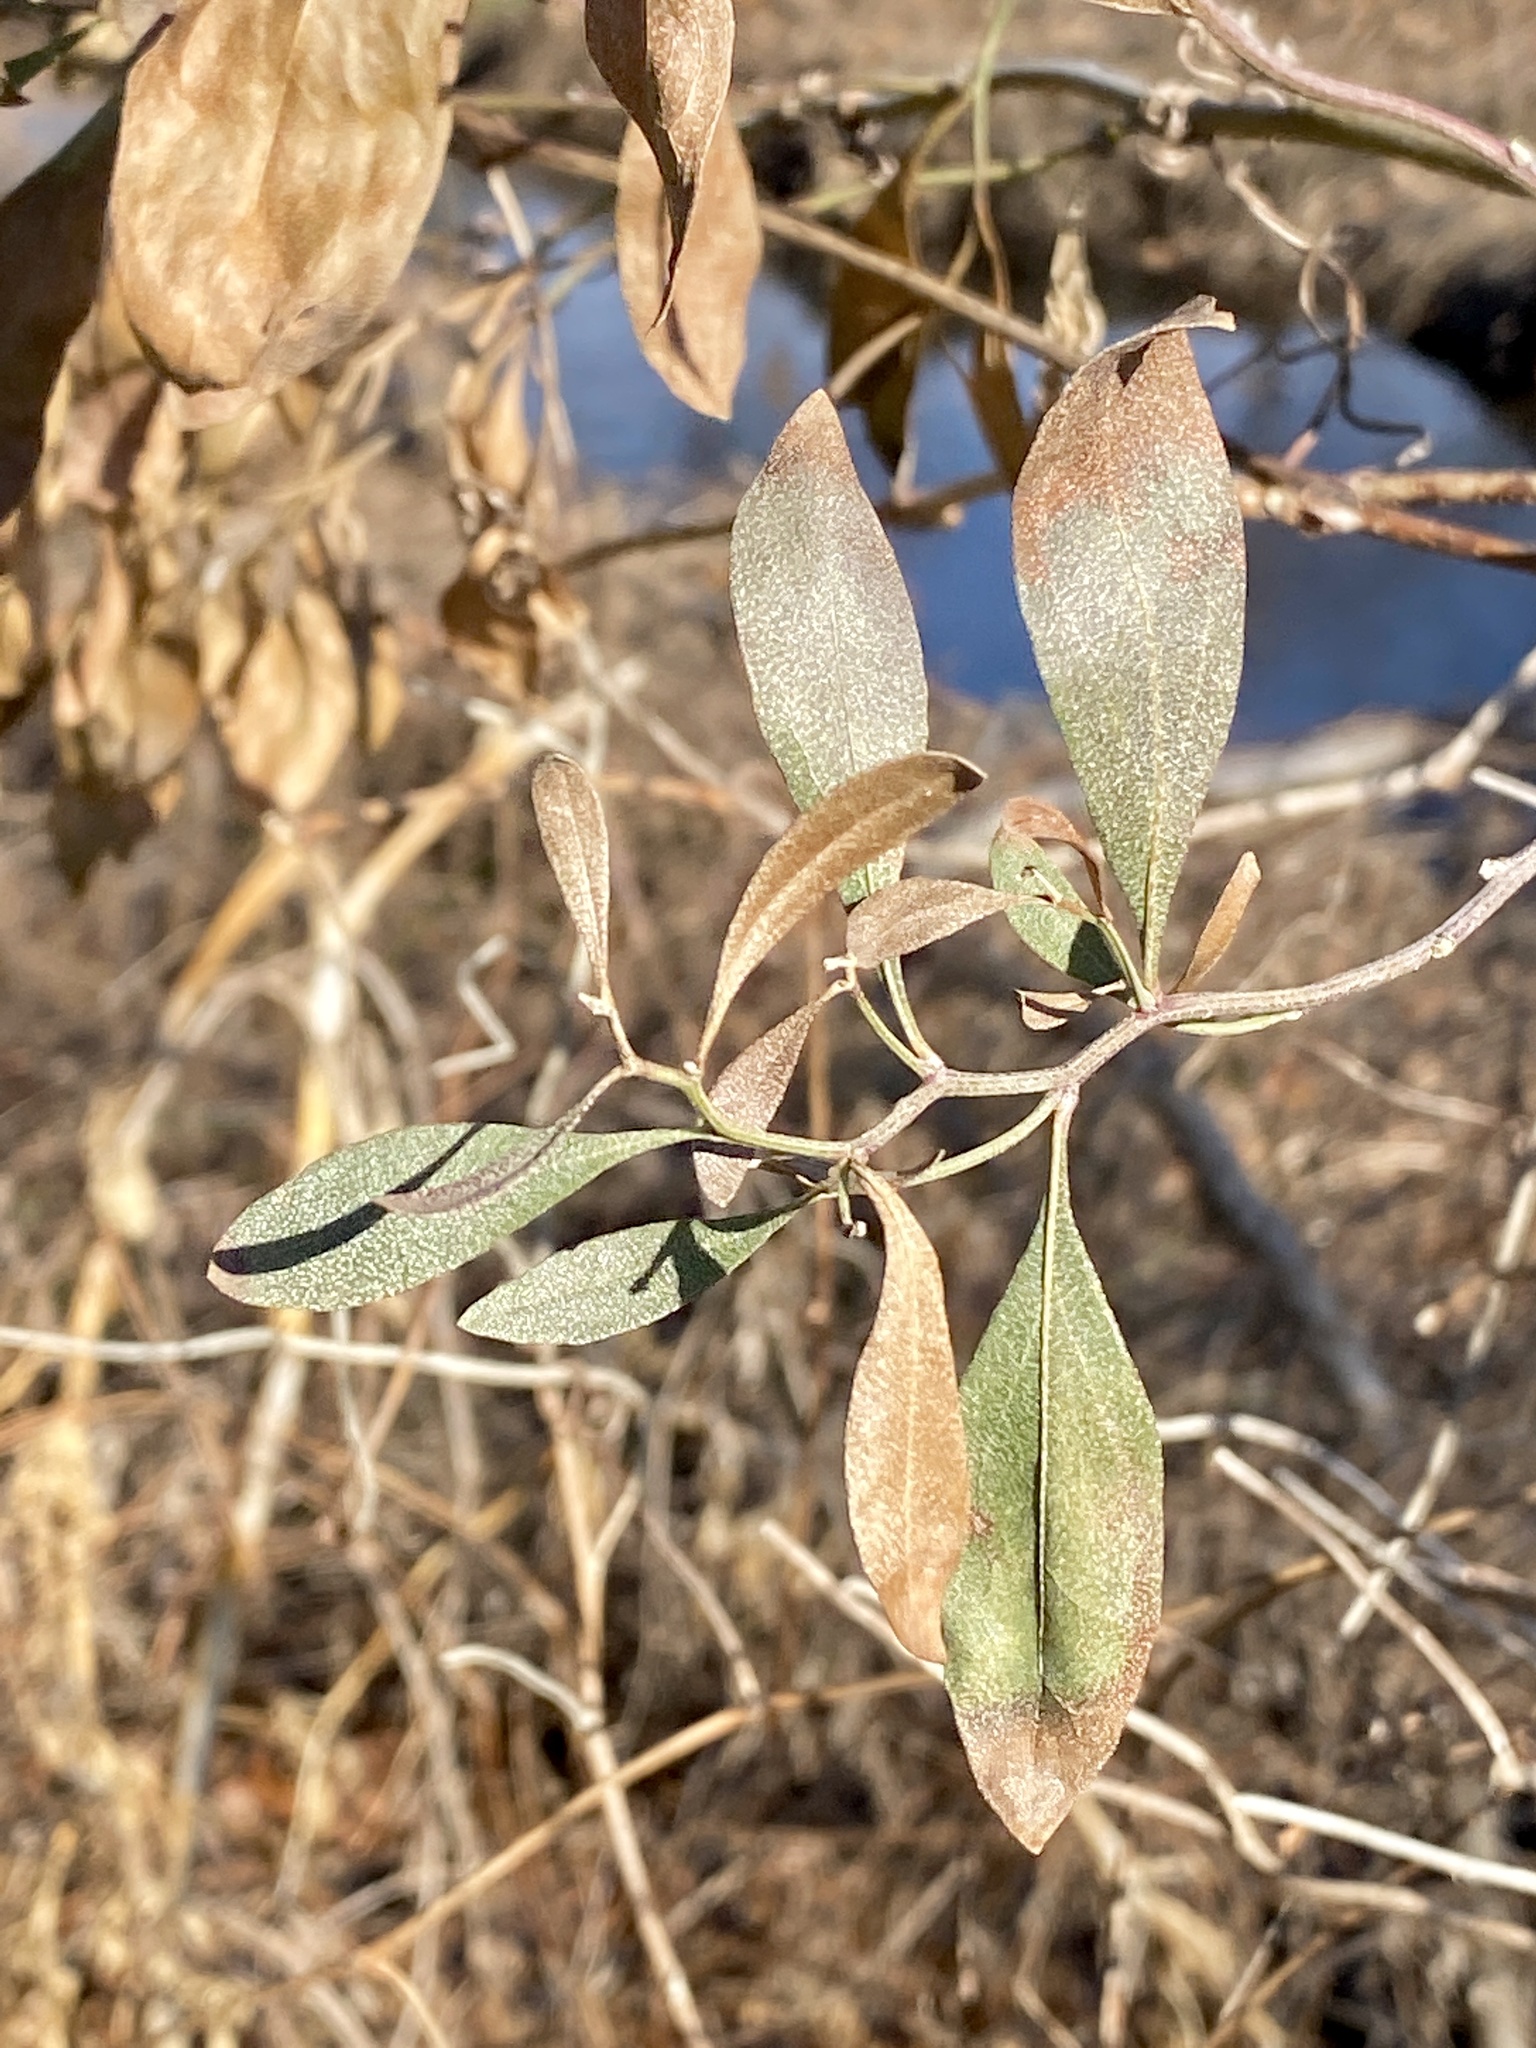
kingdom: Plantae
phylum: Tracheophyta
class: Magnoliopsida
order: Asterales
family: Asteraceae
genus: Baccharis
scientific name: Baccharis halimifolia
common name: Eastern baccharis
